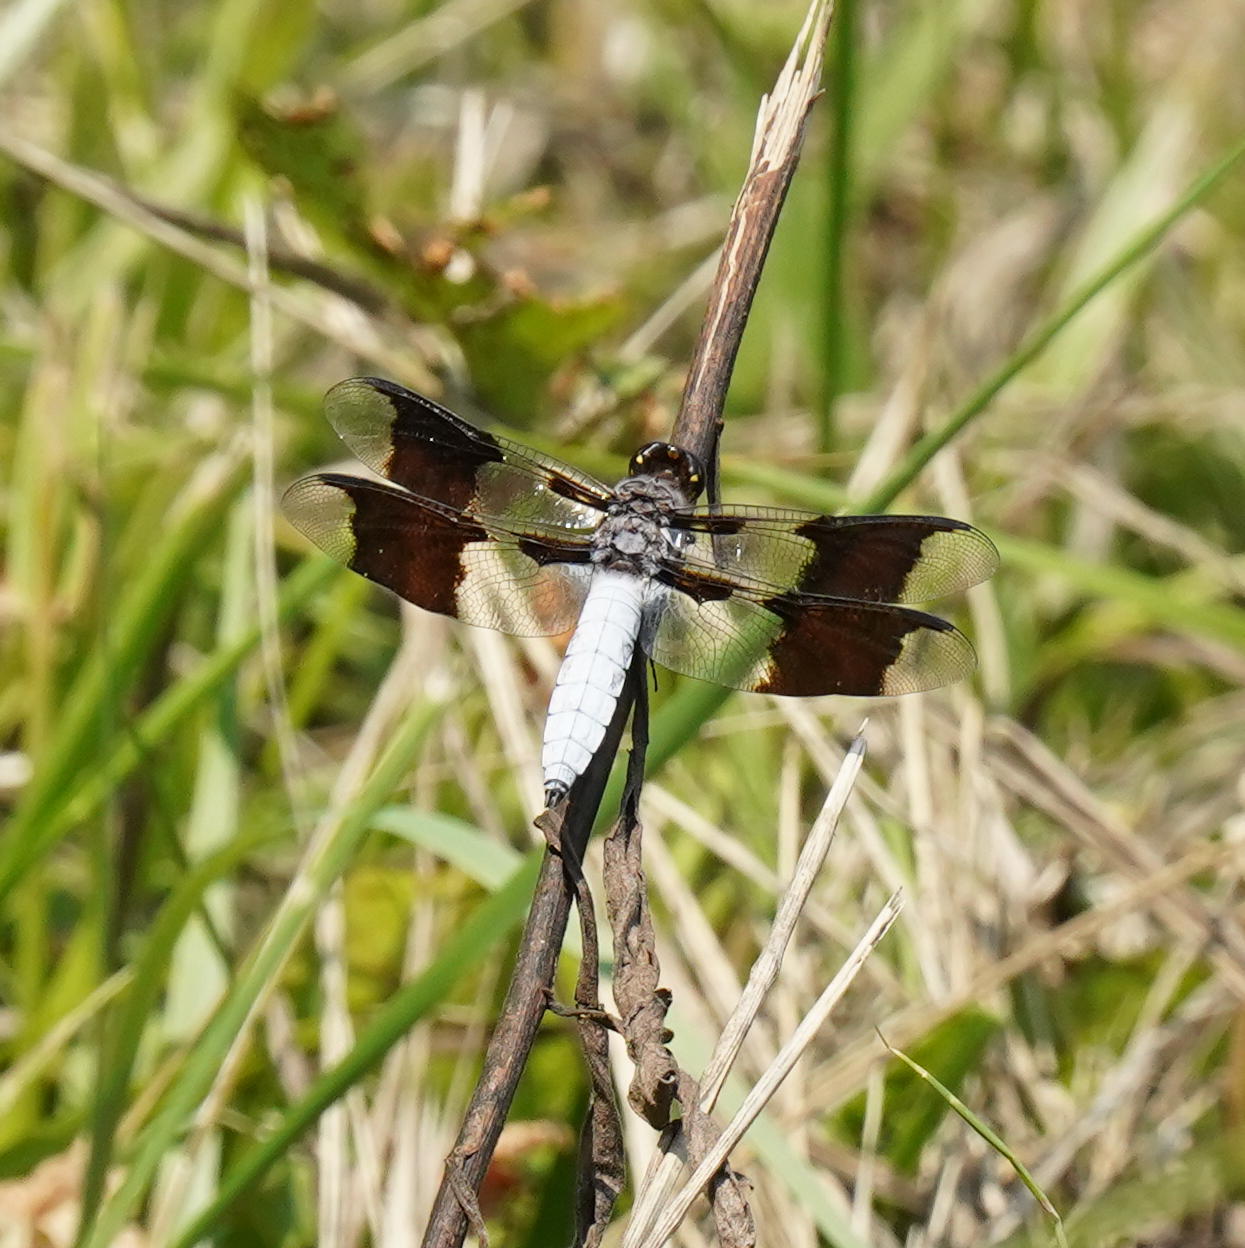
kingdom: Animalia
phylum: Arthropoda
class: Insecta
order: Odonata
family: Libellulidae
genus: Plathemis
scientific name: Plathemis lydia
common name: Common whitetail
